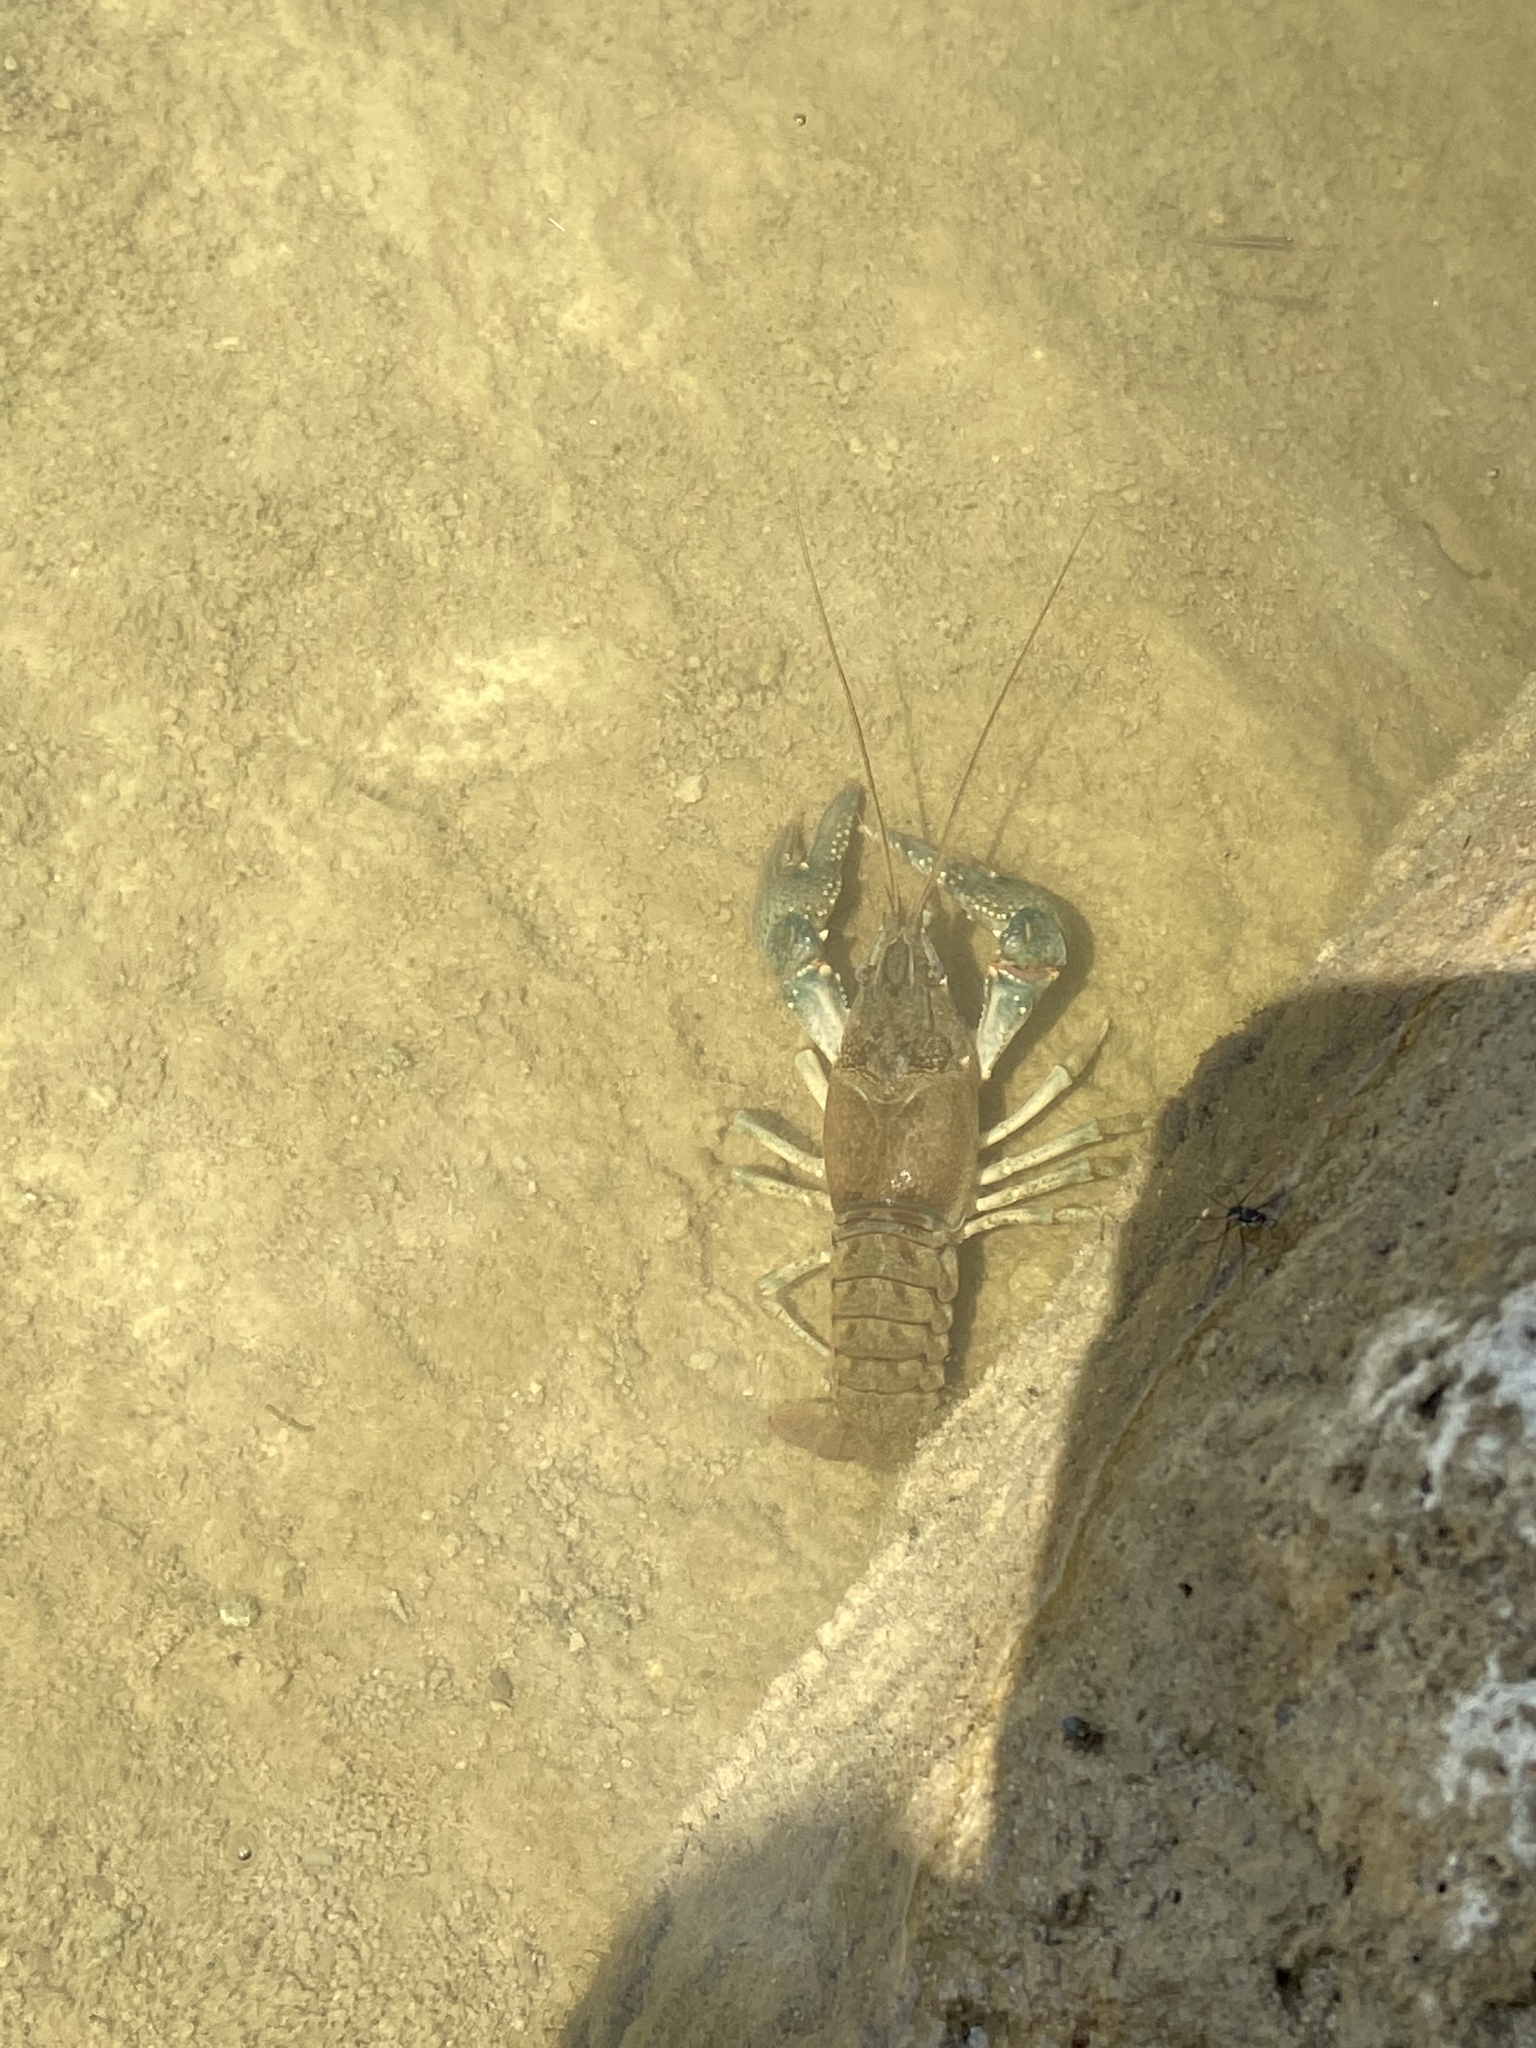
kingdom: Animalia
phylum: Arthropoda
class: Malacostraca
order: Decapoda
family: Cambaridae
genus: Faxonius
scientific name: Faxonius virilis
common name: Virile crayfish
